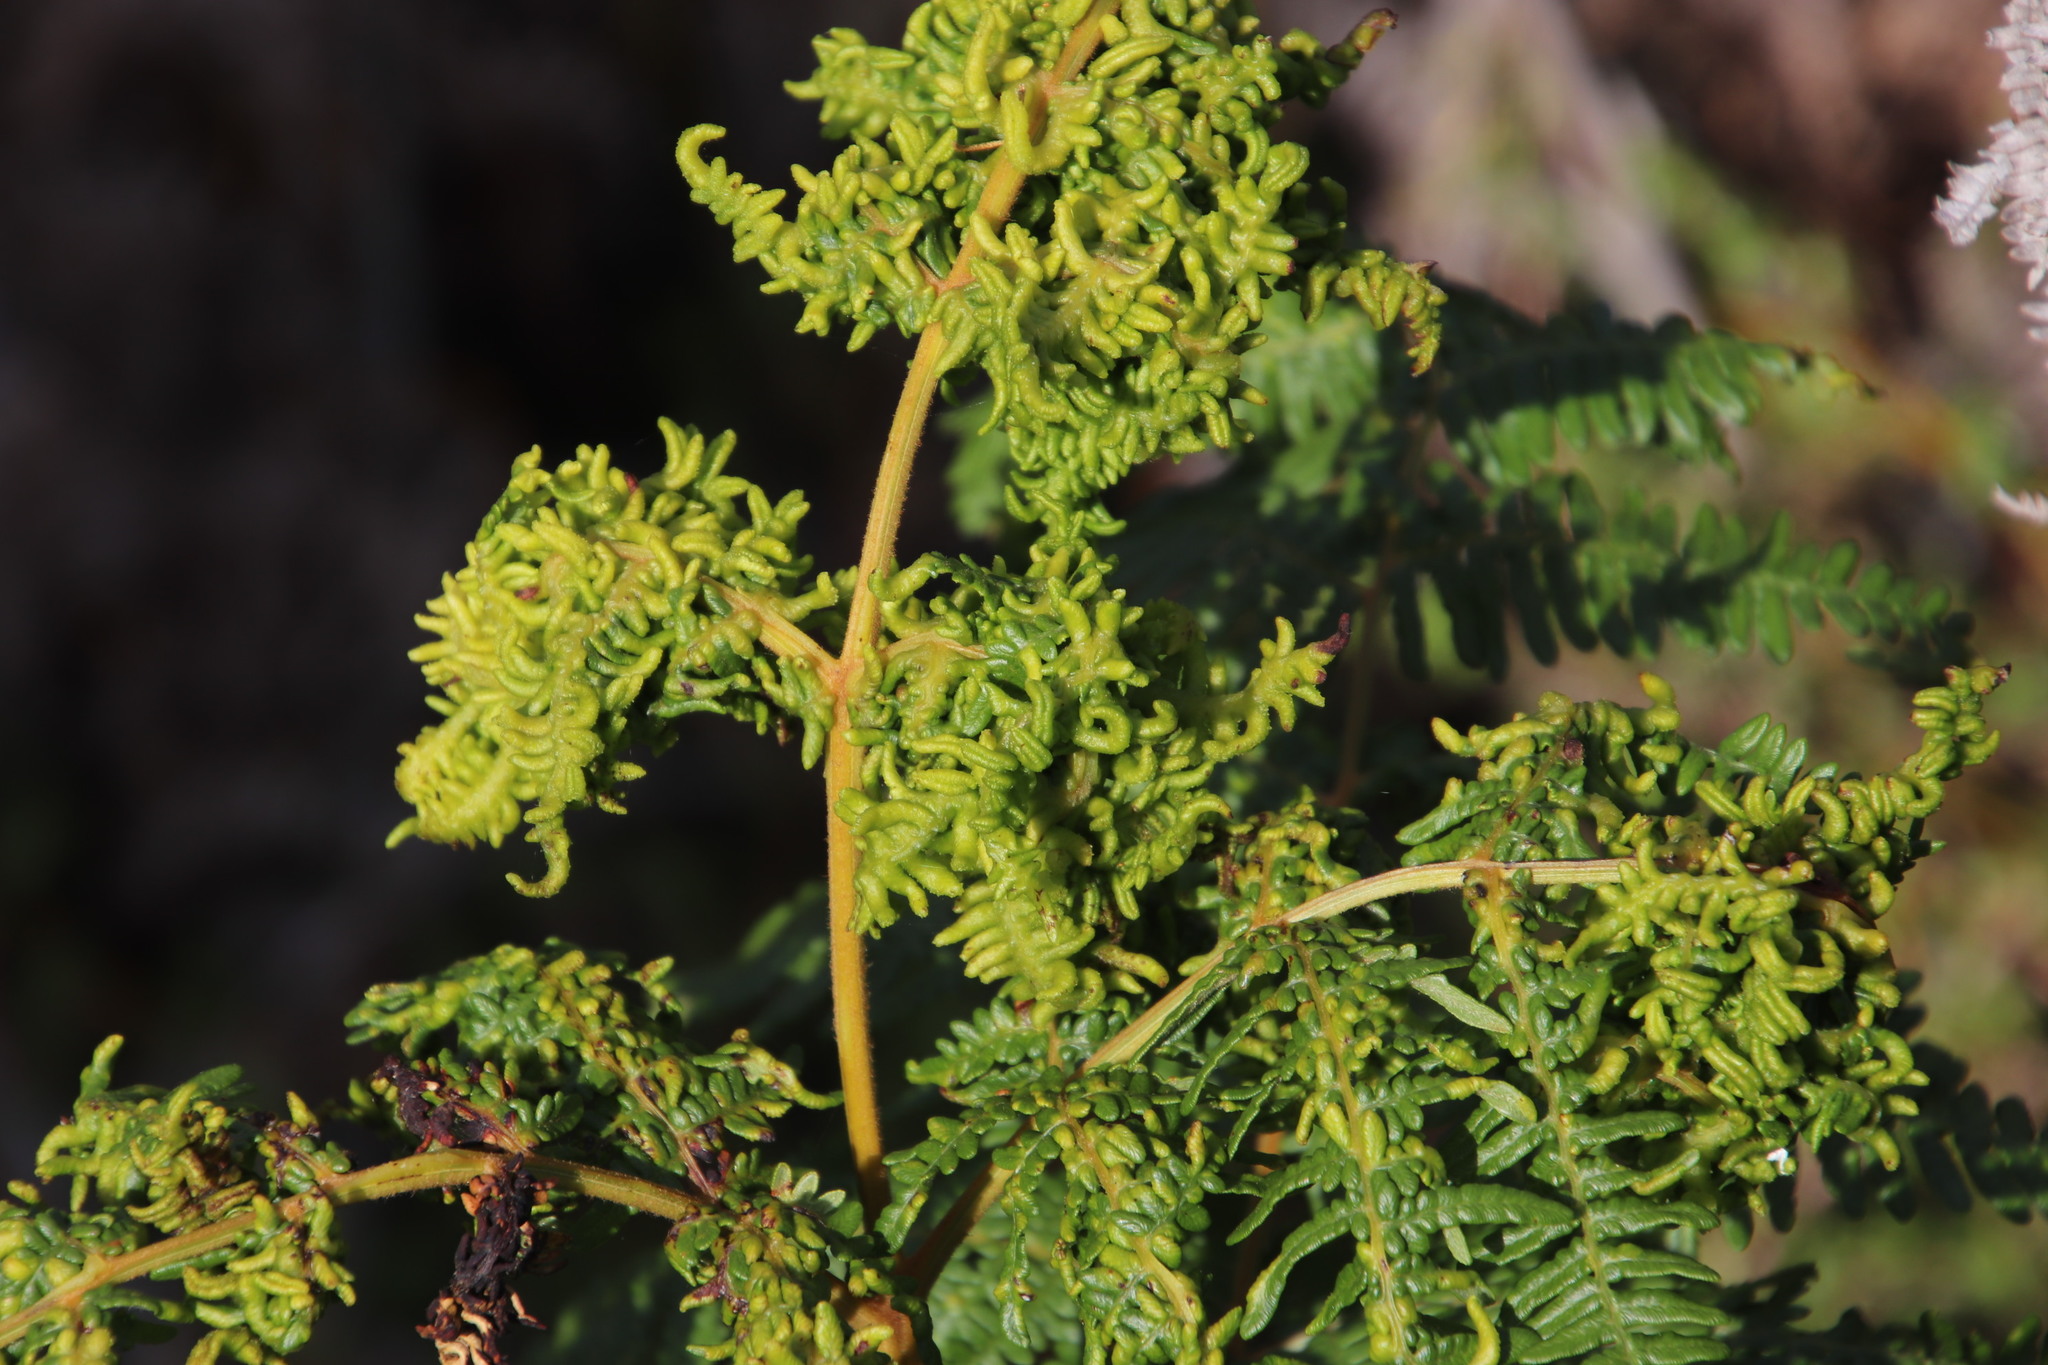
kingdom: Plantae
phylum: Tracheophyta
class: Polypodiopsida
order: Polypodiales
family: Dennstaedtiaceae
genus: Pteridium
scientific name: Pteridium aquilinum
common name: Bracken
